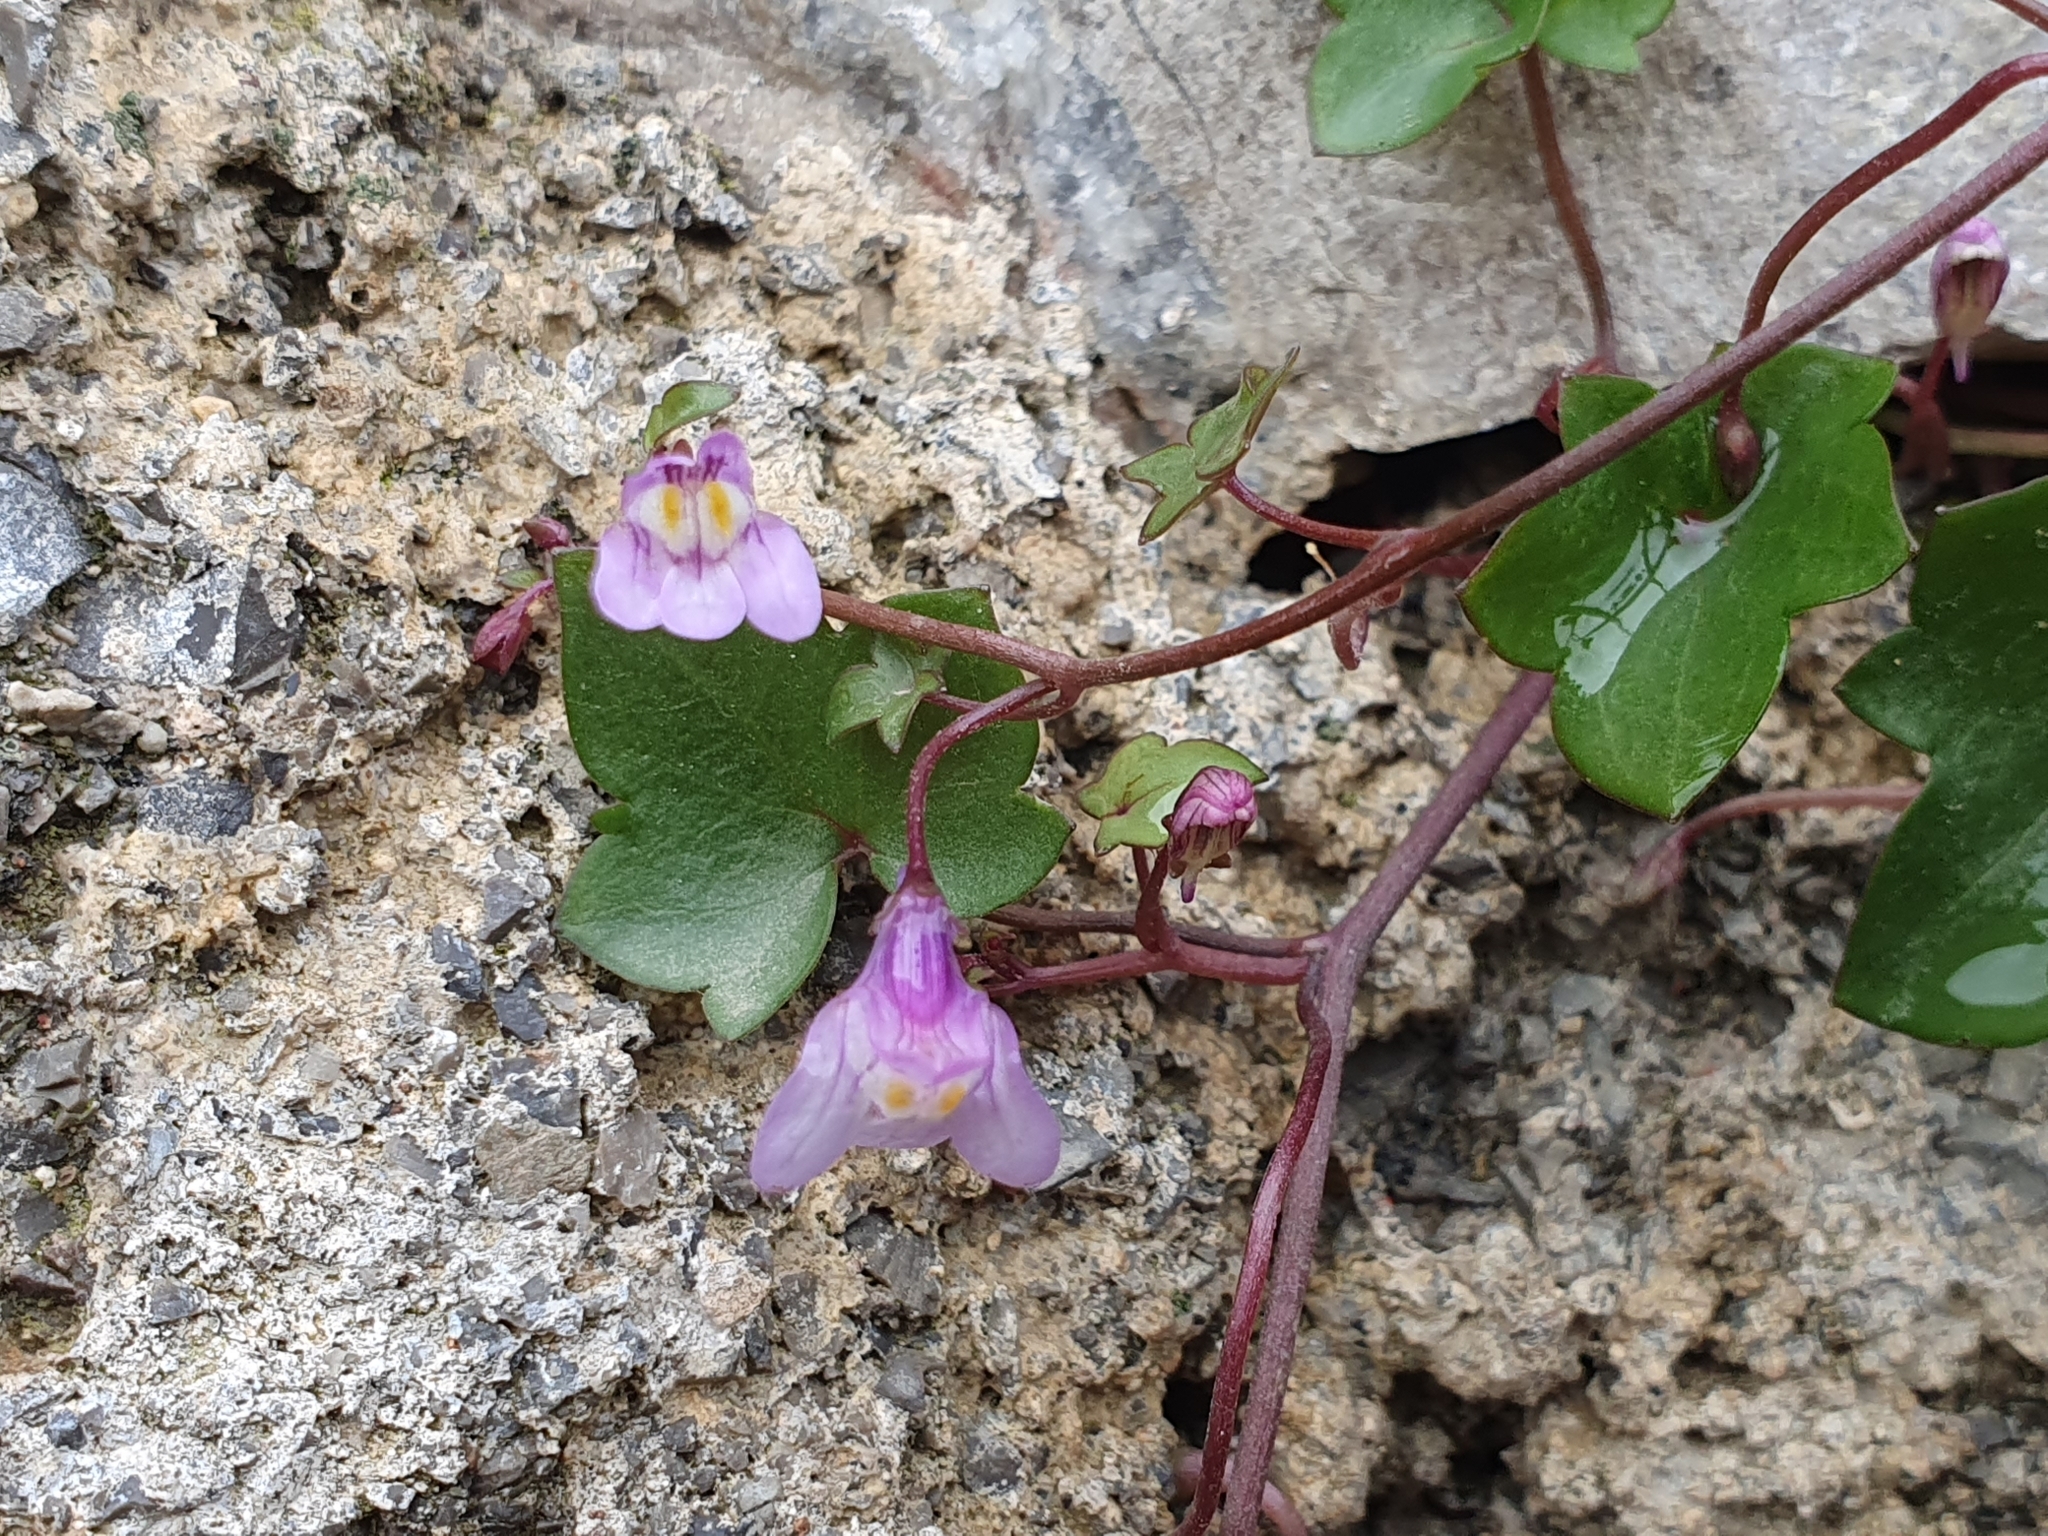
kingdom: Plantae
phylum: Tracheophyta
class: Magnoliopsida
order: Lamiales
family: Plantaginaceae
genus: Cymbalaria
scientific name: Cymbalaria muralis
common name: Ivy-leaved toadflax
